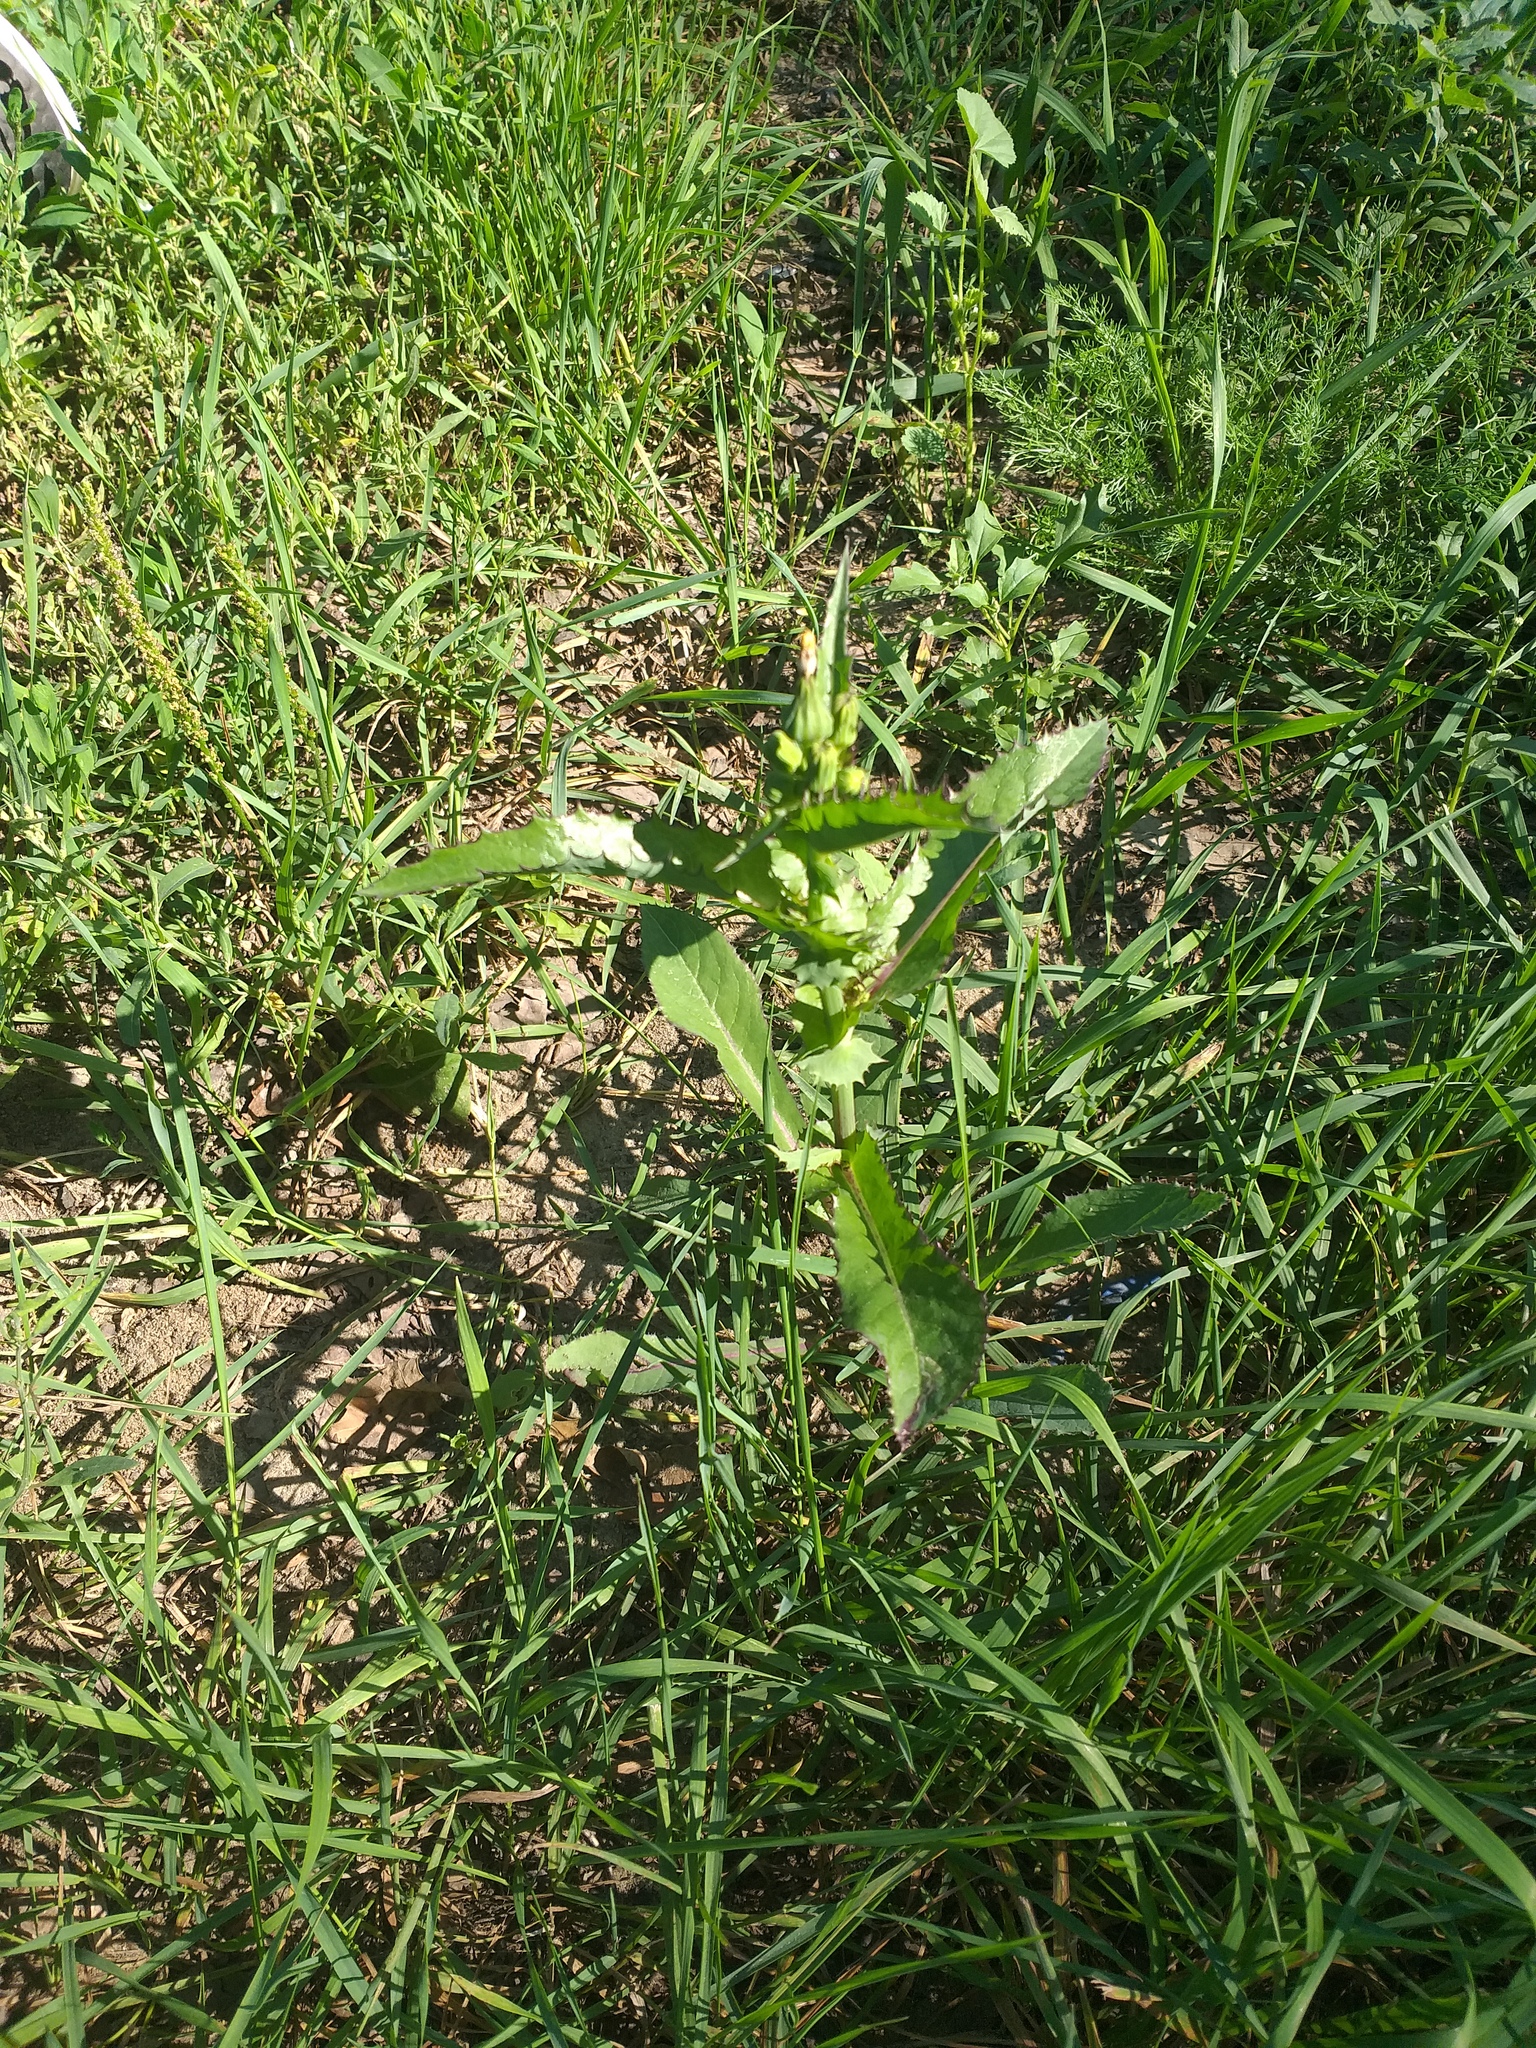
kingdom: Plantae
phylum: Tracheophyta
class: Magnoliopsida
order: Asterales
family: Asteraceae
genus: Sonchus
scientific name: Sonchus asper
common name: Prickly sow-thistle
